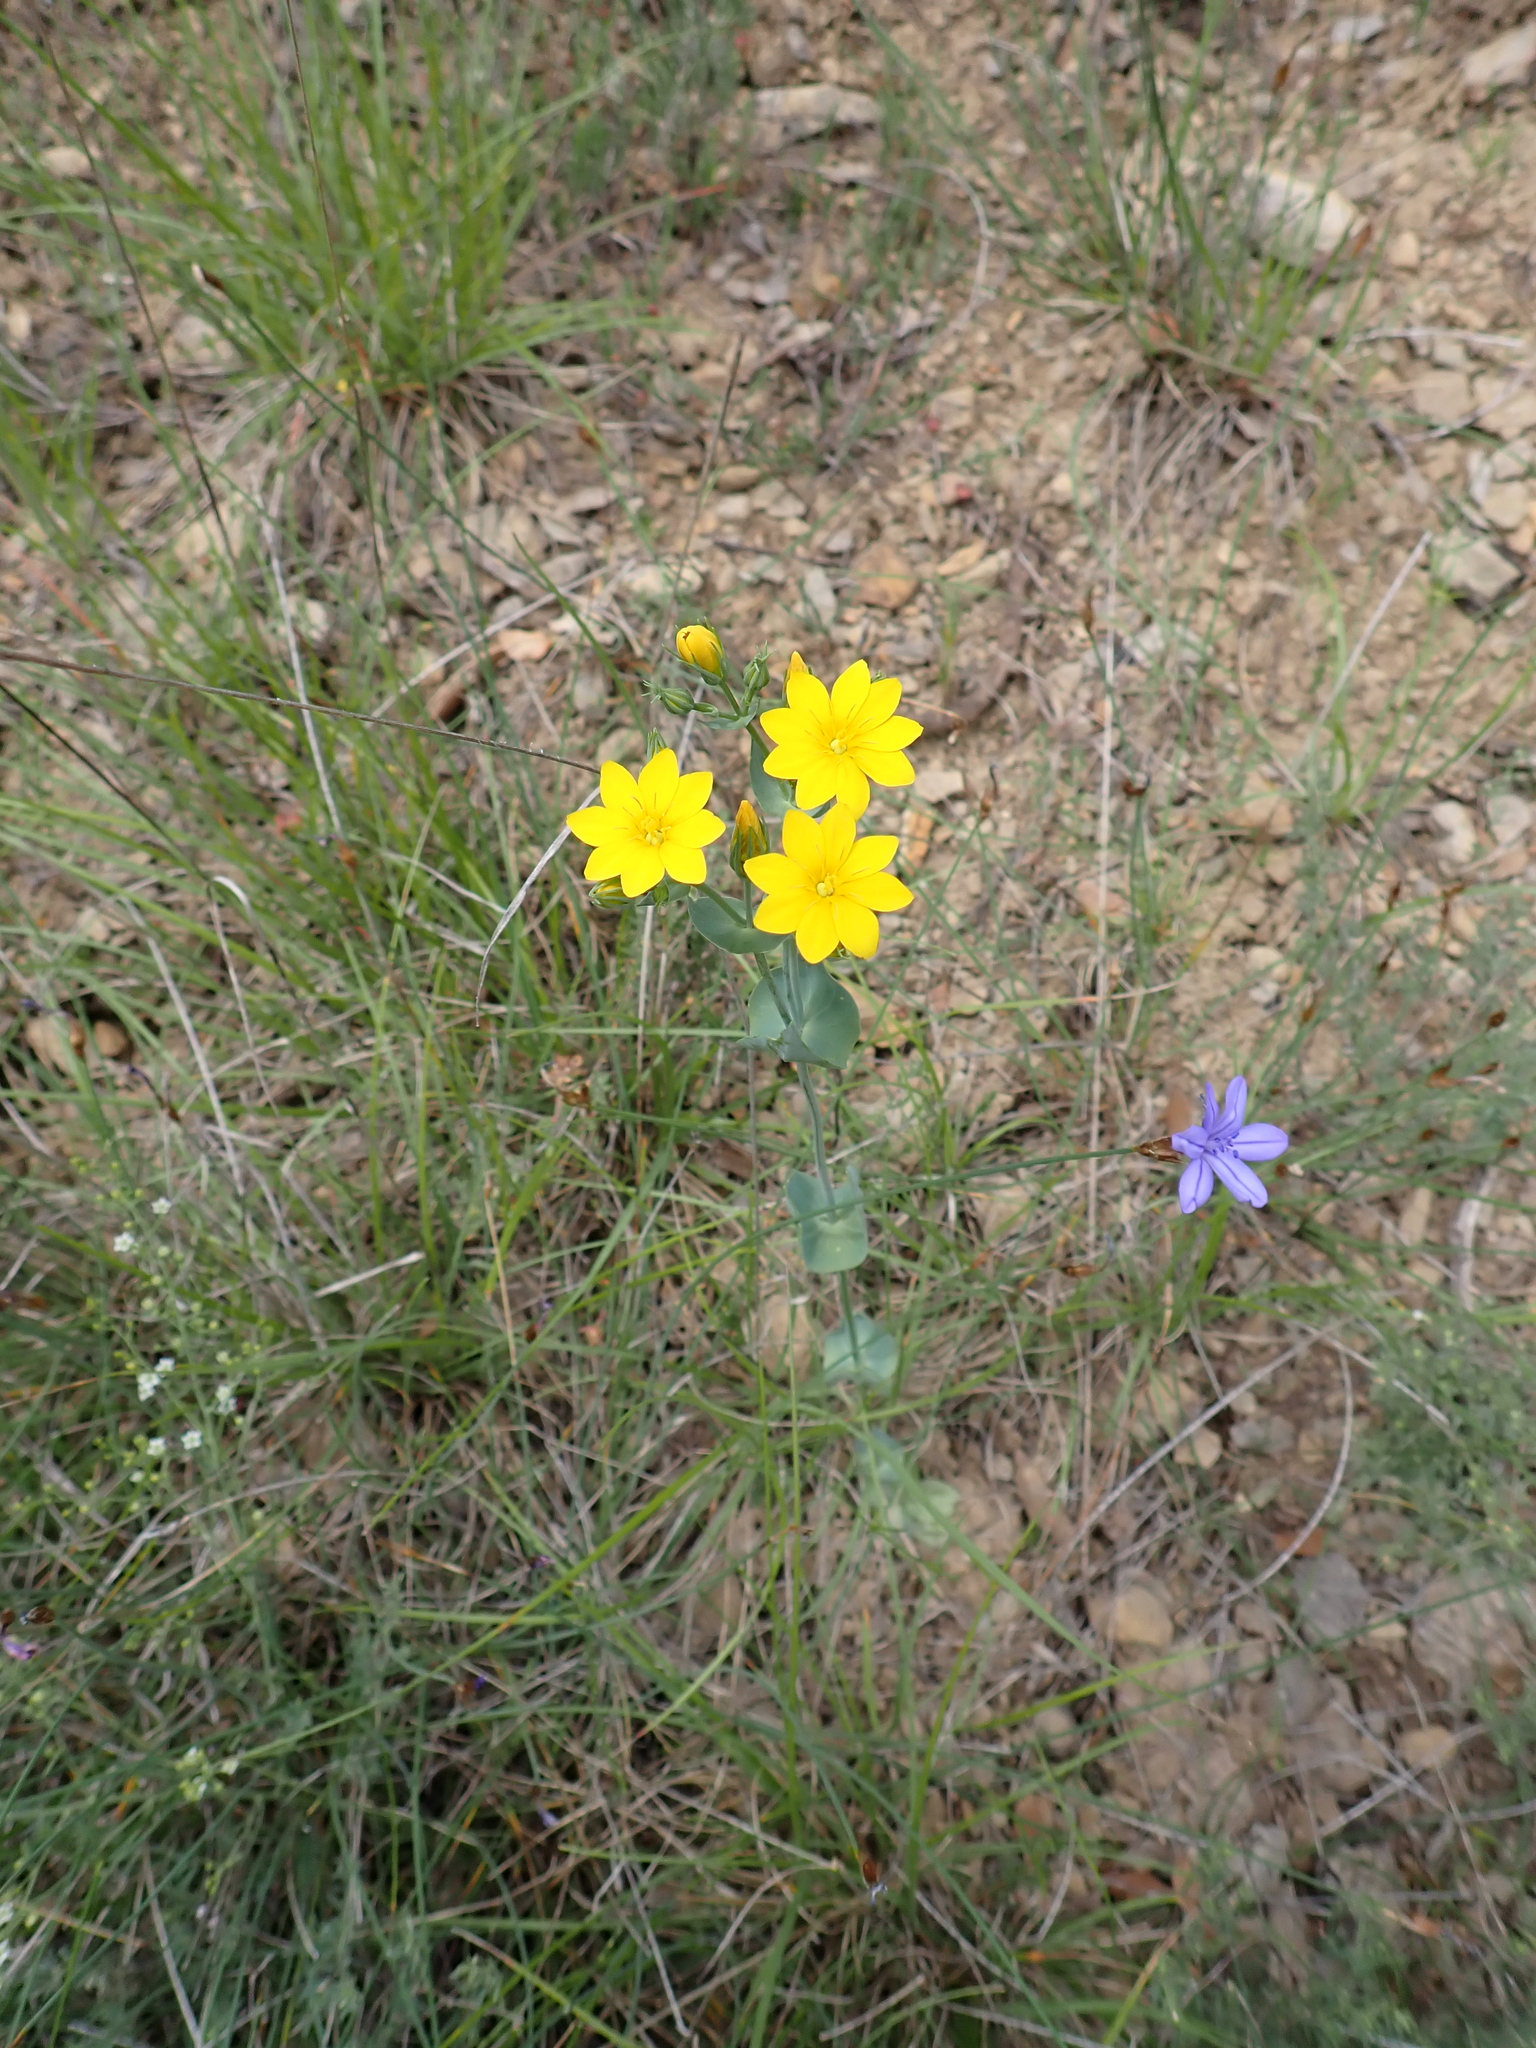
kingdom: Plantae
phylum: Tracheophyta
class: Magnoliopsida
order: Gentianales
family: Gentianaceae
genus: Blackstonia
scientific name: Blackstonia perfoliata
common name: Yellow-wort
